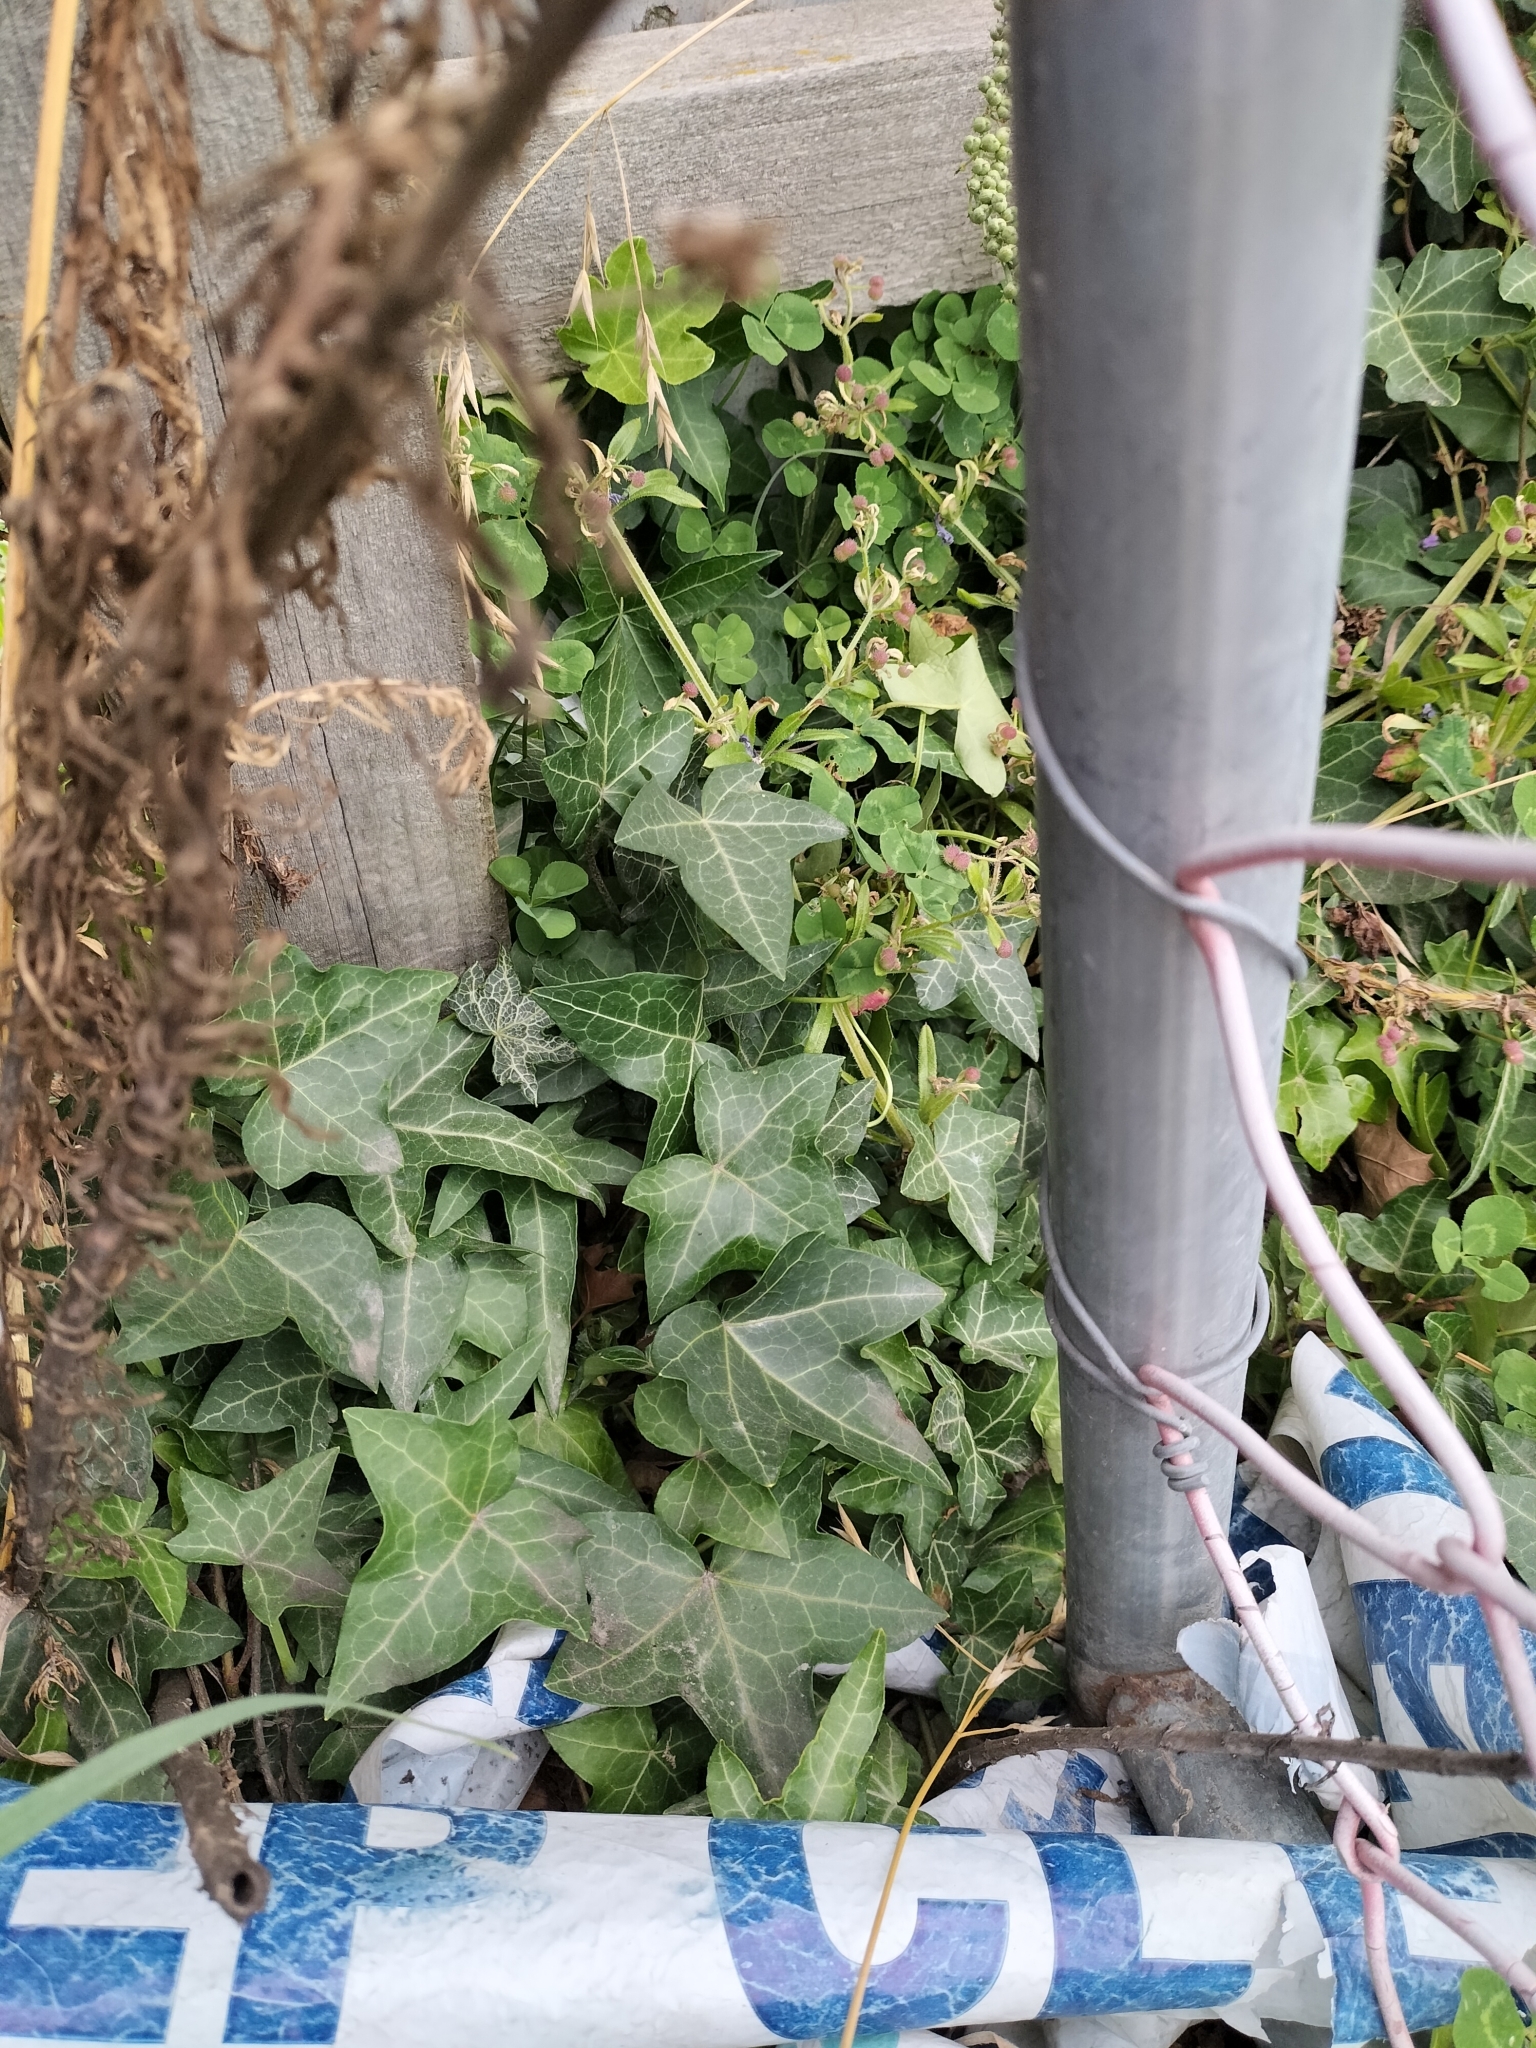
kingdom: Plantae
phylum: Tracheophyta
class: Magnoliopsida
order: Apiales
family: Araliaceae
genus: Hedera
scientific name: Hedera helix
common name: Ivy
